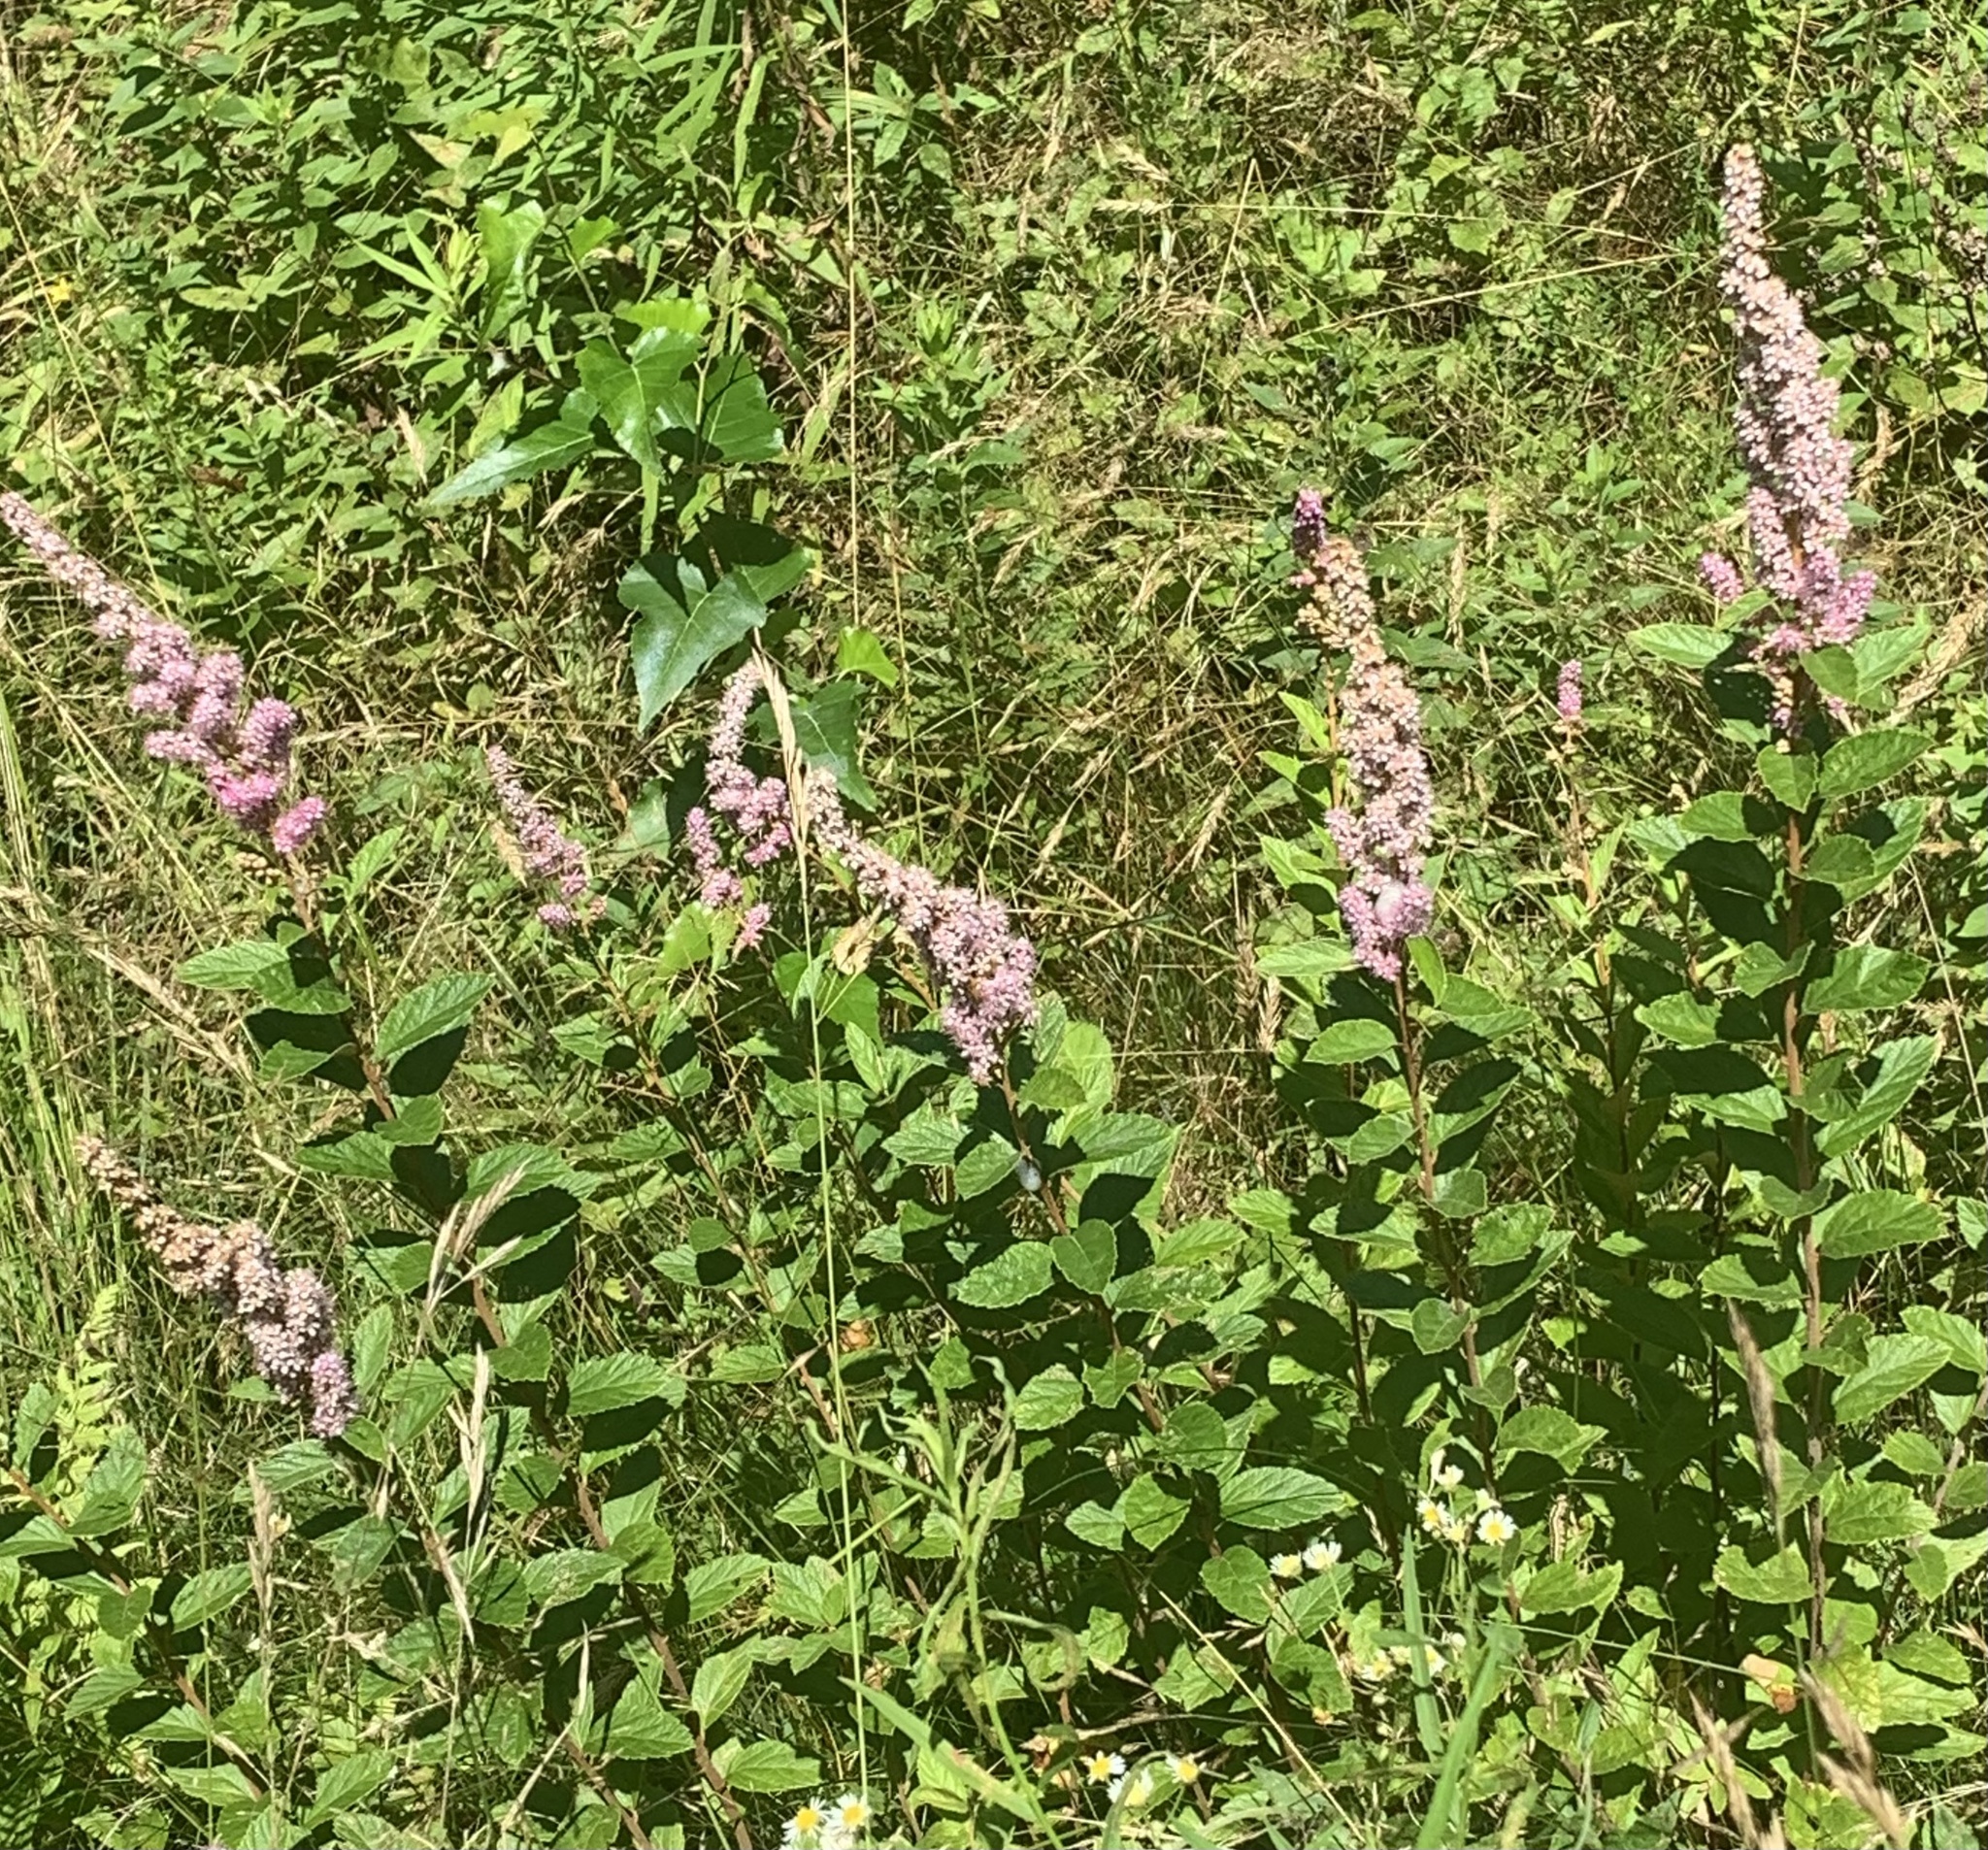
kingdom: Plantae
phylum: Tracheophyta
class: Magnoliopsida
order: Rosales
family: Rosaceae
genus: Spiraea
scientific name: Spiraea tomentosa
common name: Hardhack
